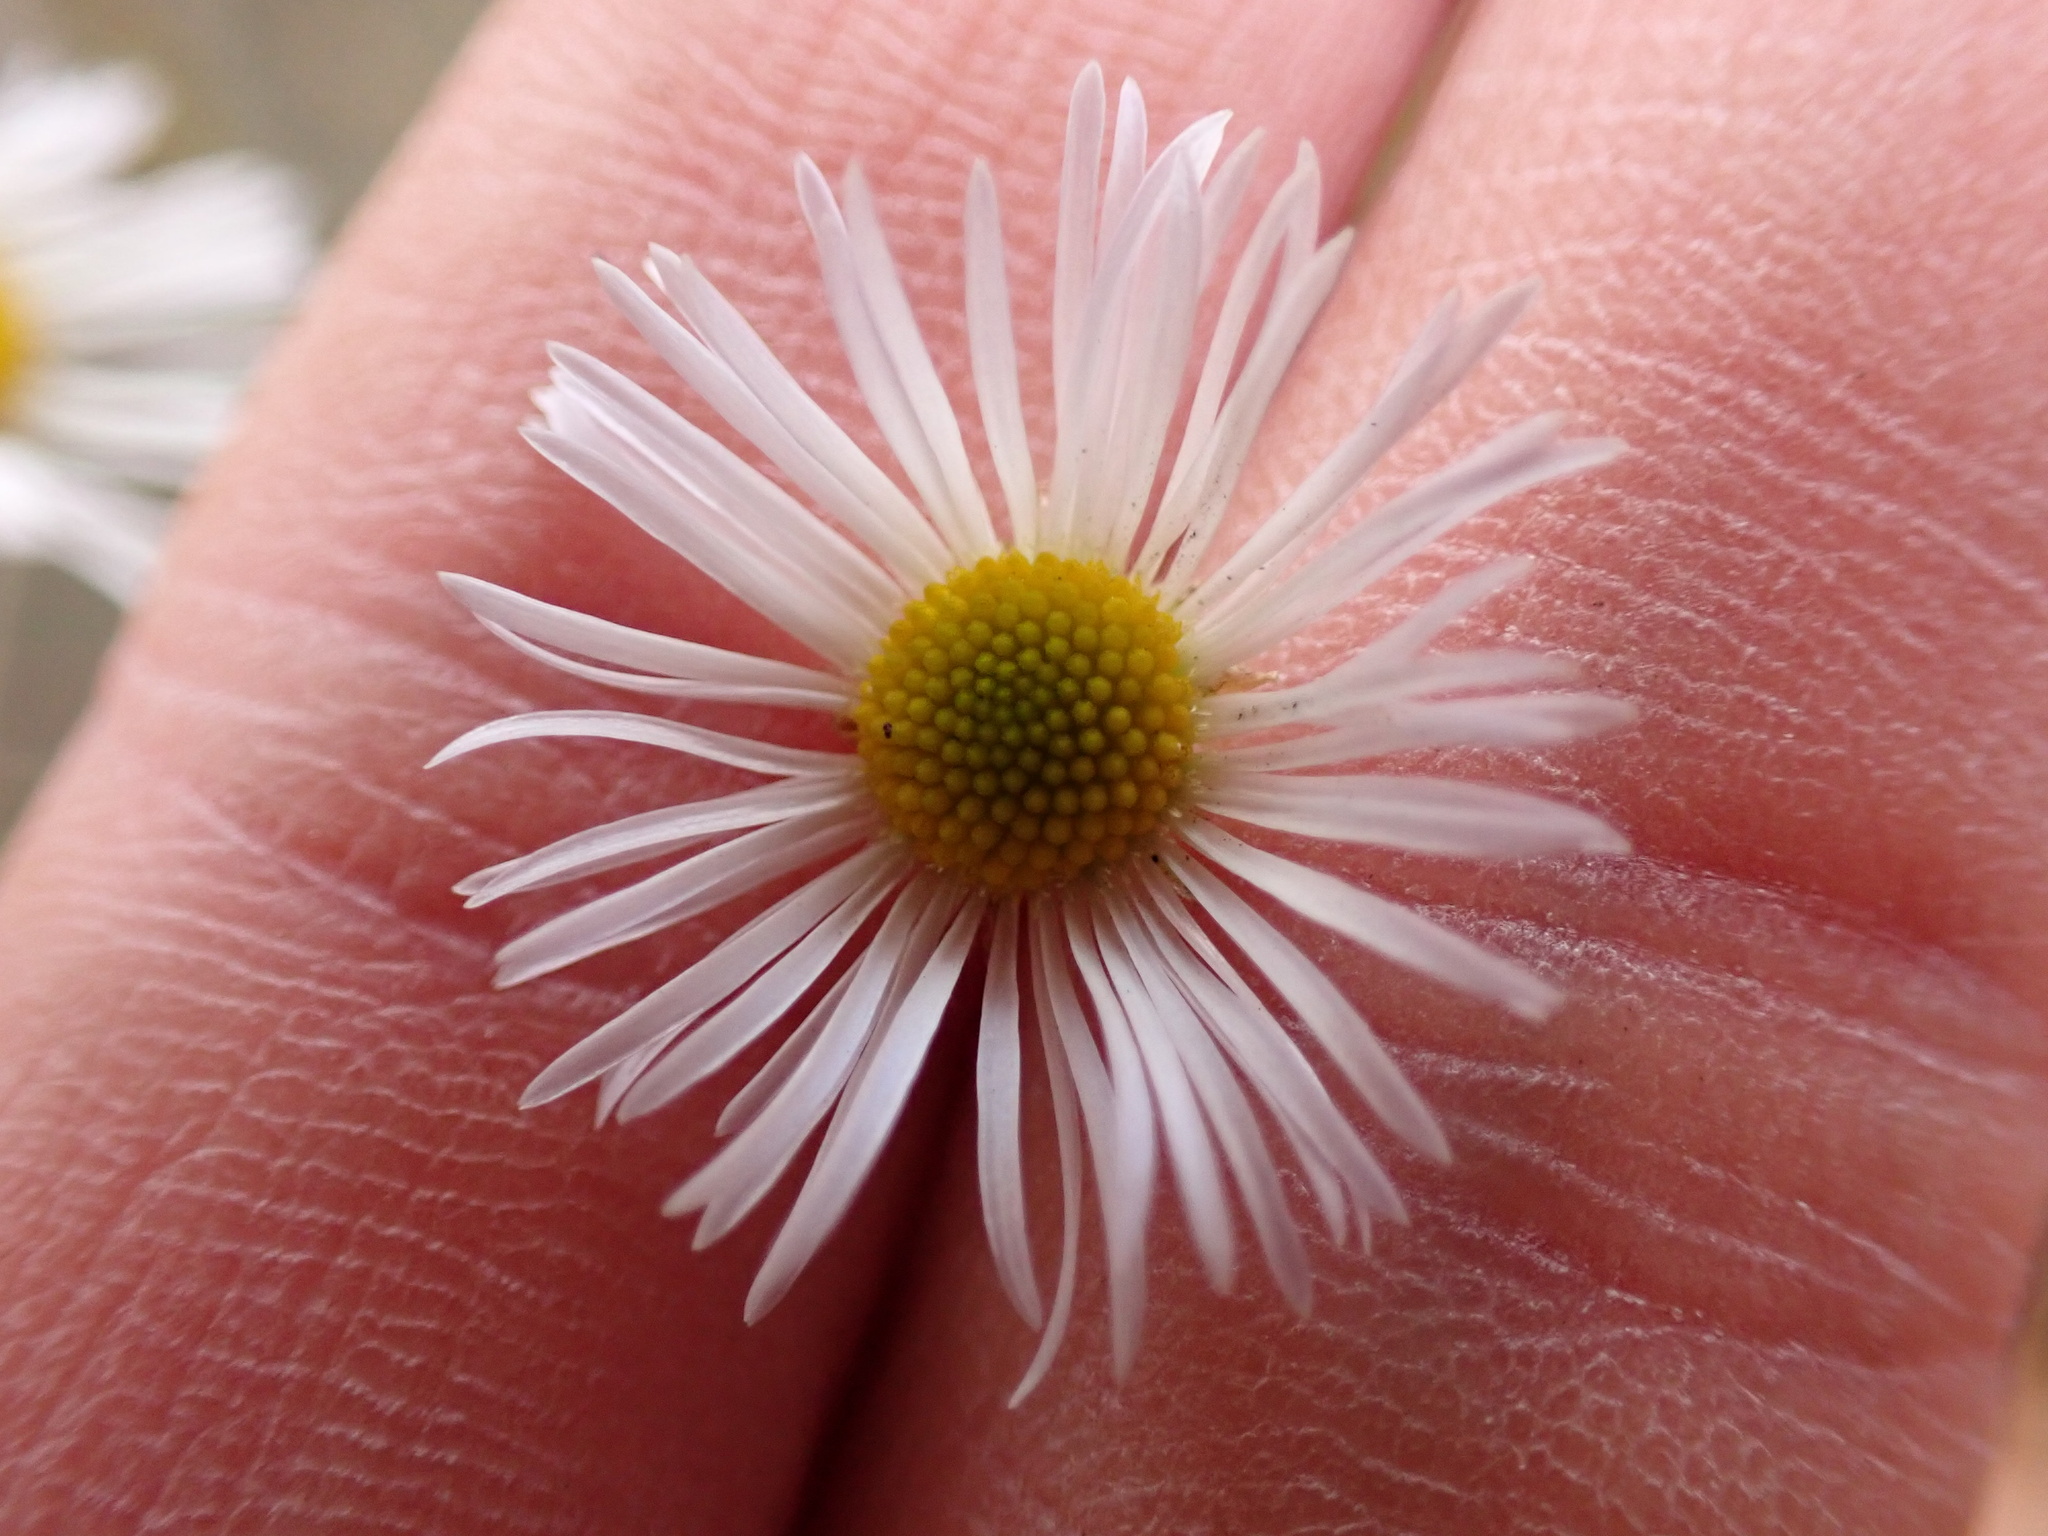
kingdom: Plantae
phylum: Tracheophyta
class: Magnoliopsida
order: Asterales
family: Asteraceae
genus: Erigeron
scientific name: Erigeron annuus
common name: Tall fleabane
